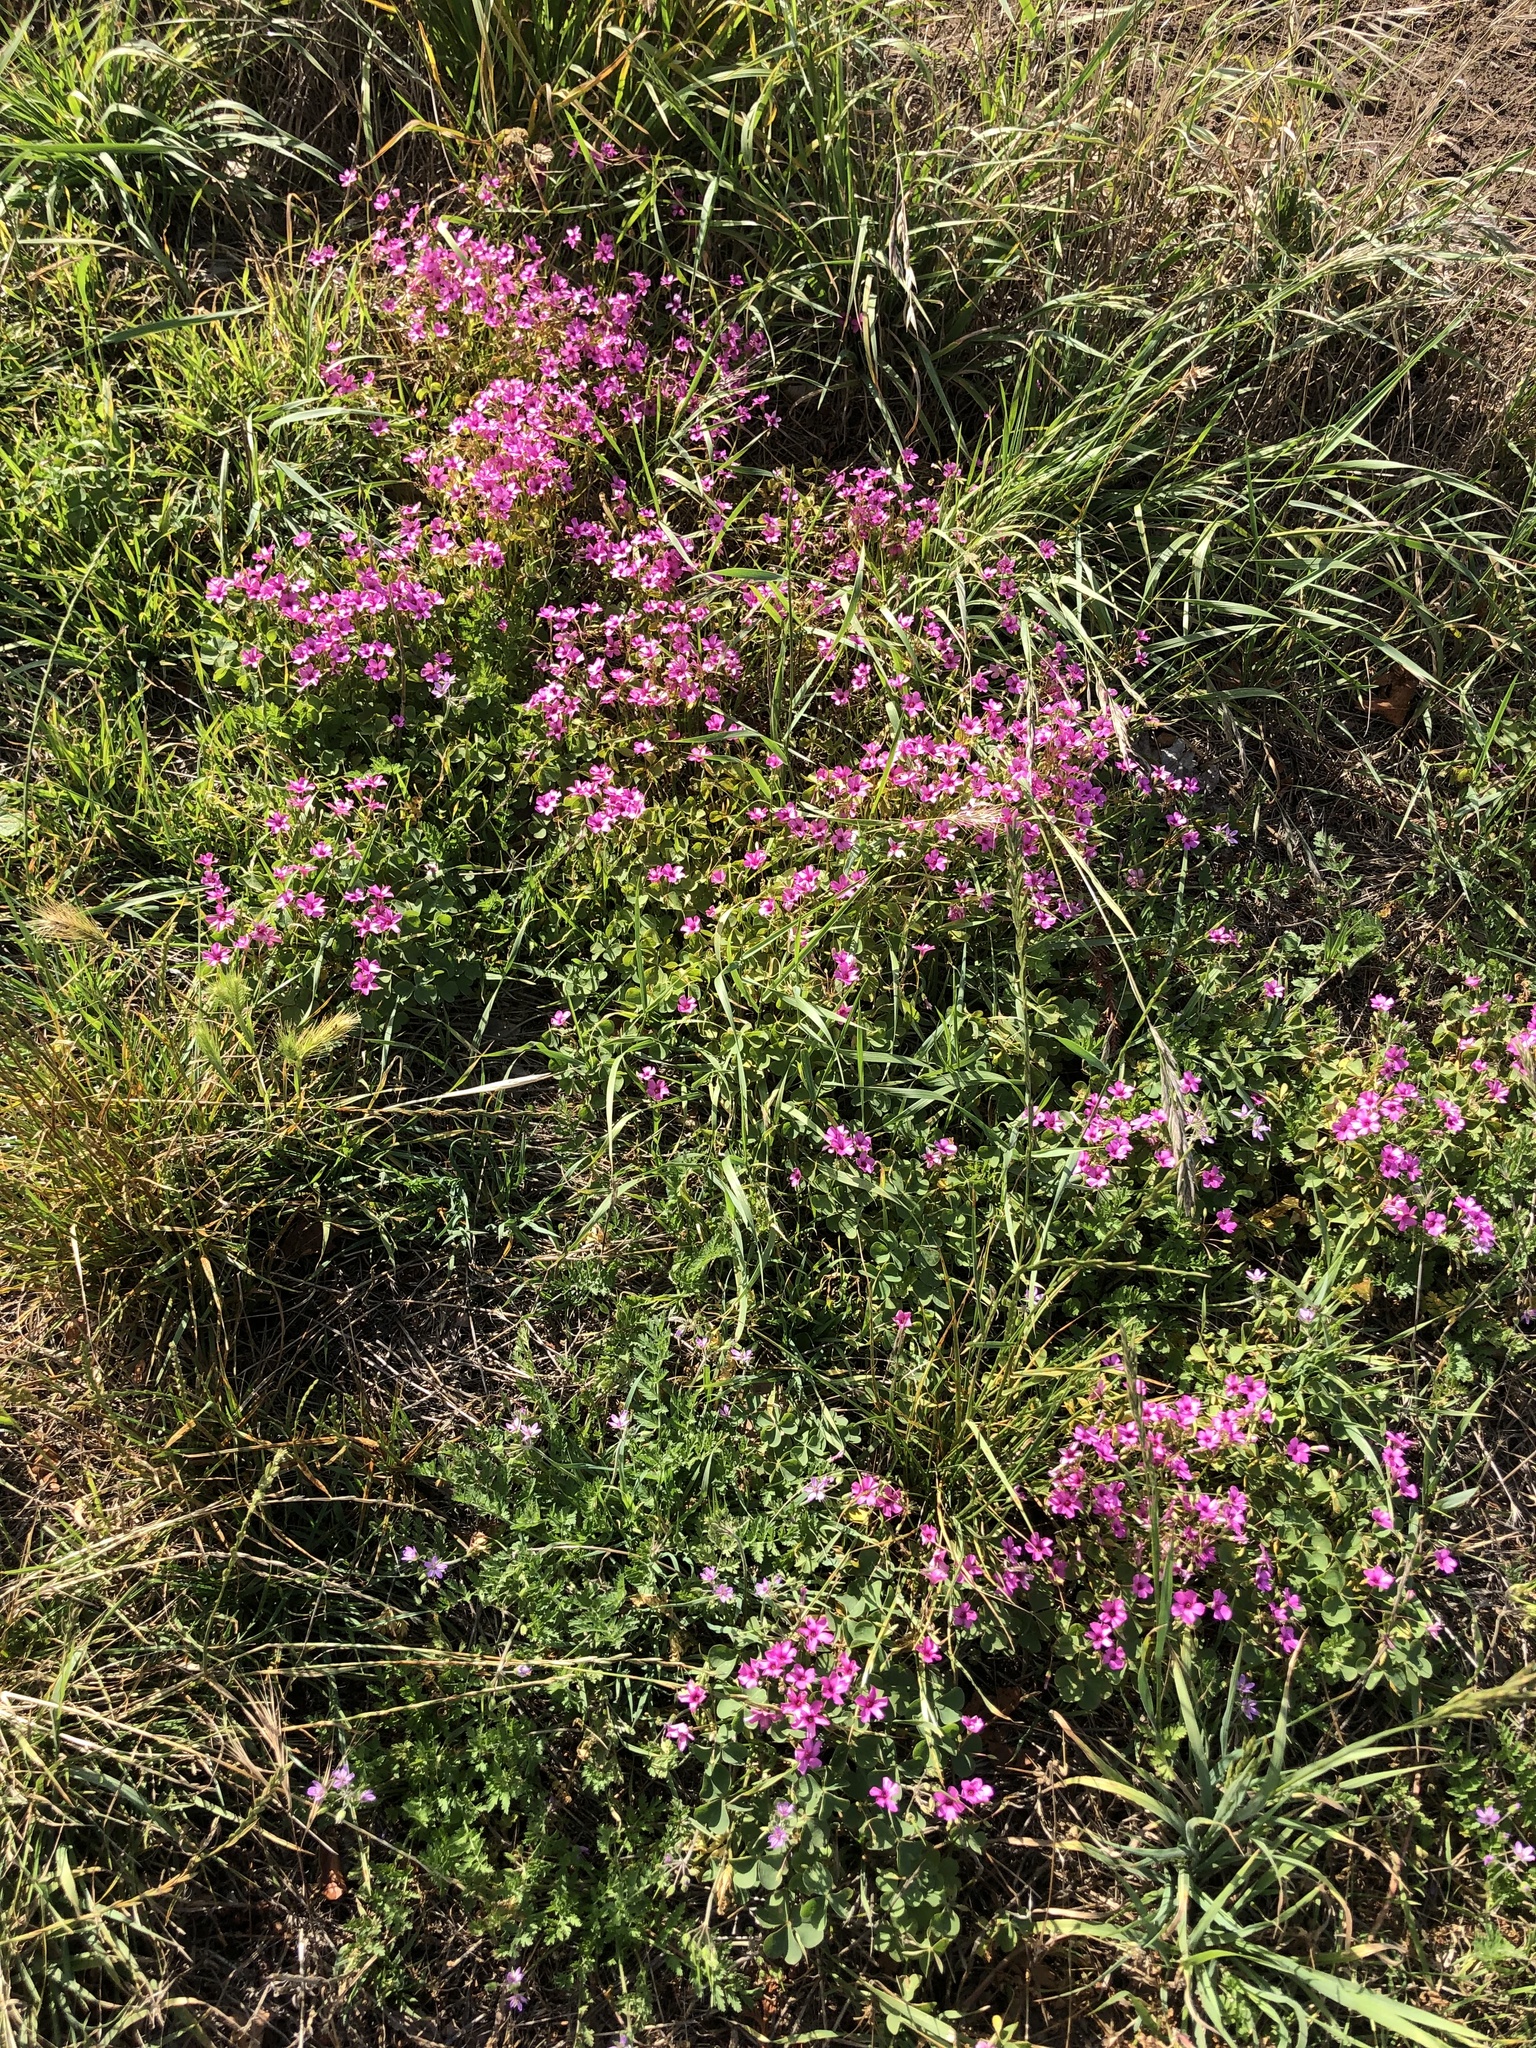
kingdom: Plantae
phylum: Tracheophyta
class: Magnoliopsida
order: Oxalidales
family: Oxalidaceae
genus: Oxalis
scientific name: Oxalis articulata
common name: Pink-sorrel
